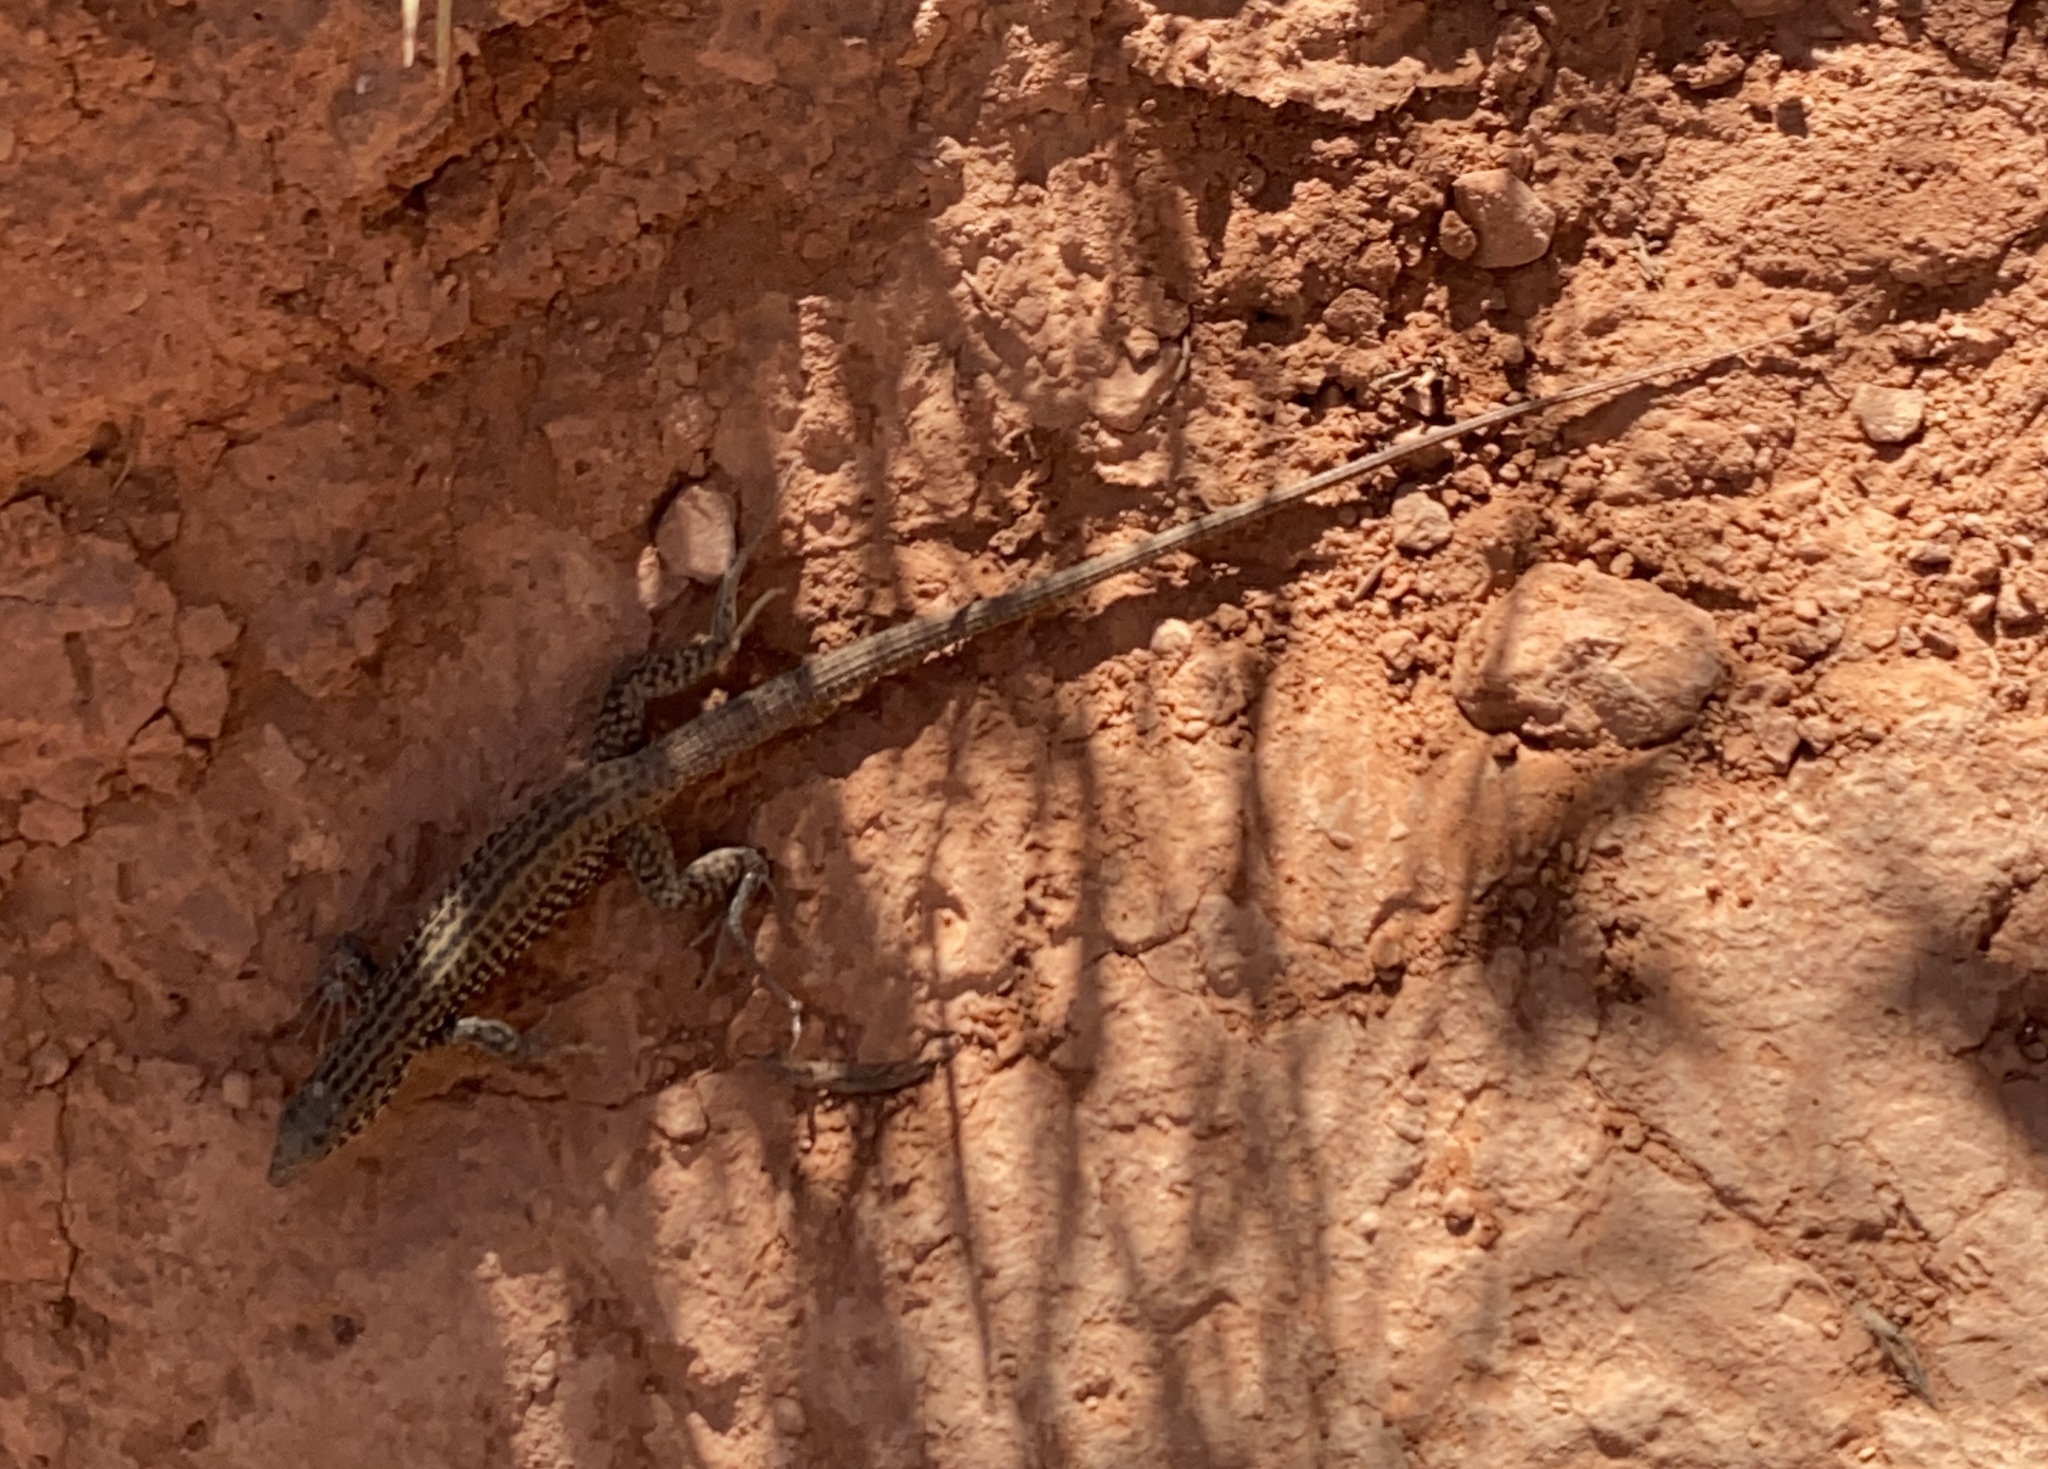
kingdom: Animalia
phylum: Chordata
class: Squamata
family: Teiidae
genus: Aspidoscelis
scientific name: Aspidoscelis tigris
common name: Tiger whiptail
